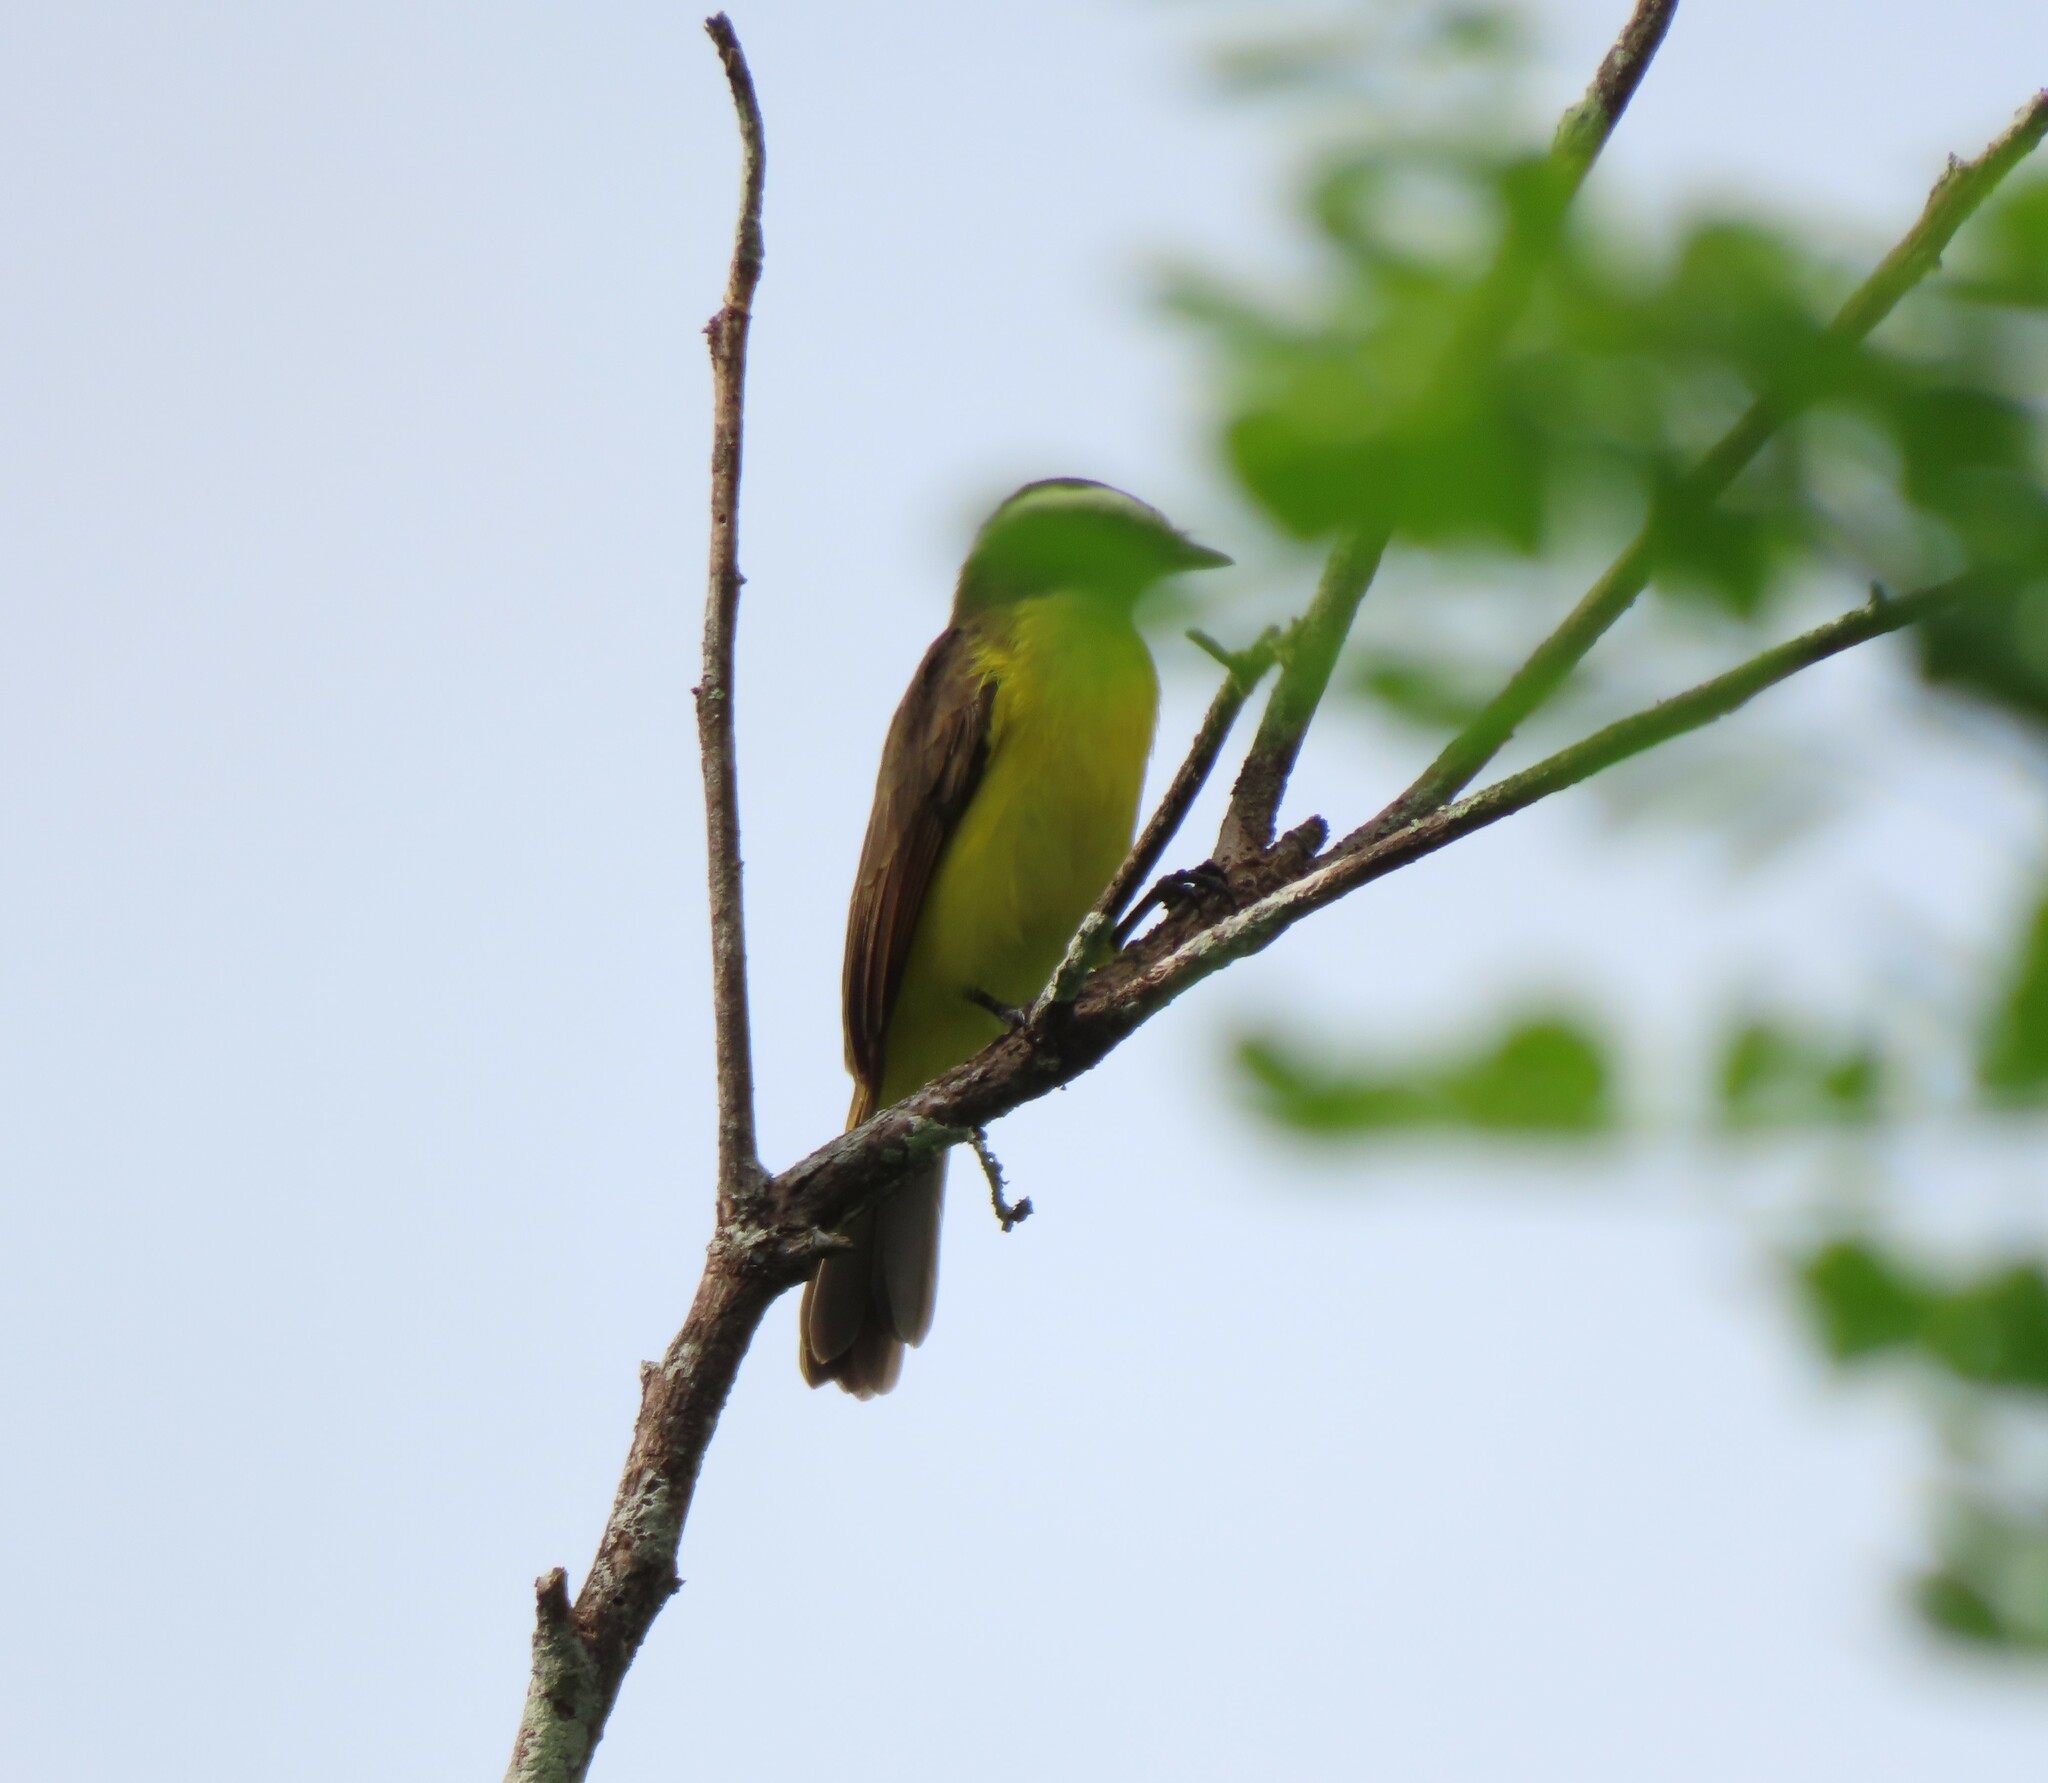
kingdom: Animalia
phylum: Chordata
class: Aves
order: Passeriformes
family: Tyrannidae
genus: Myiozetetes
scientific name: Myiozetetes cayanensis
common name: Rusty-margined flycatcher
